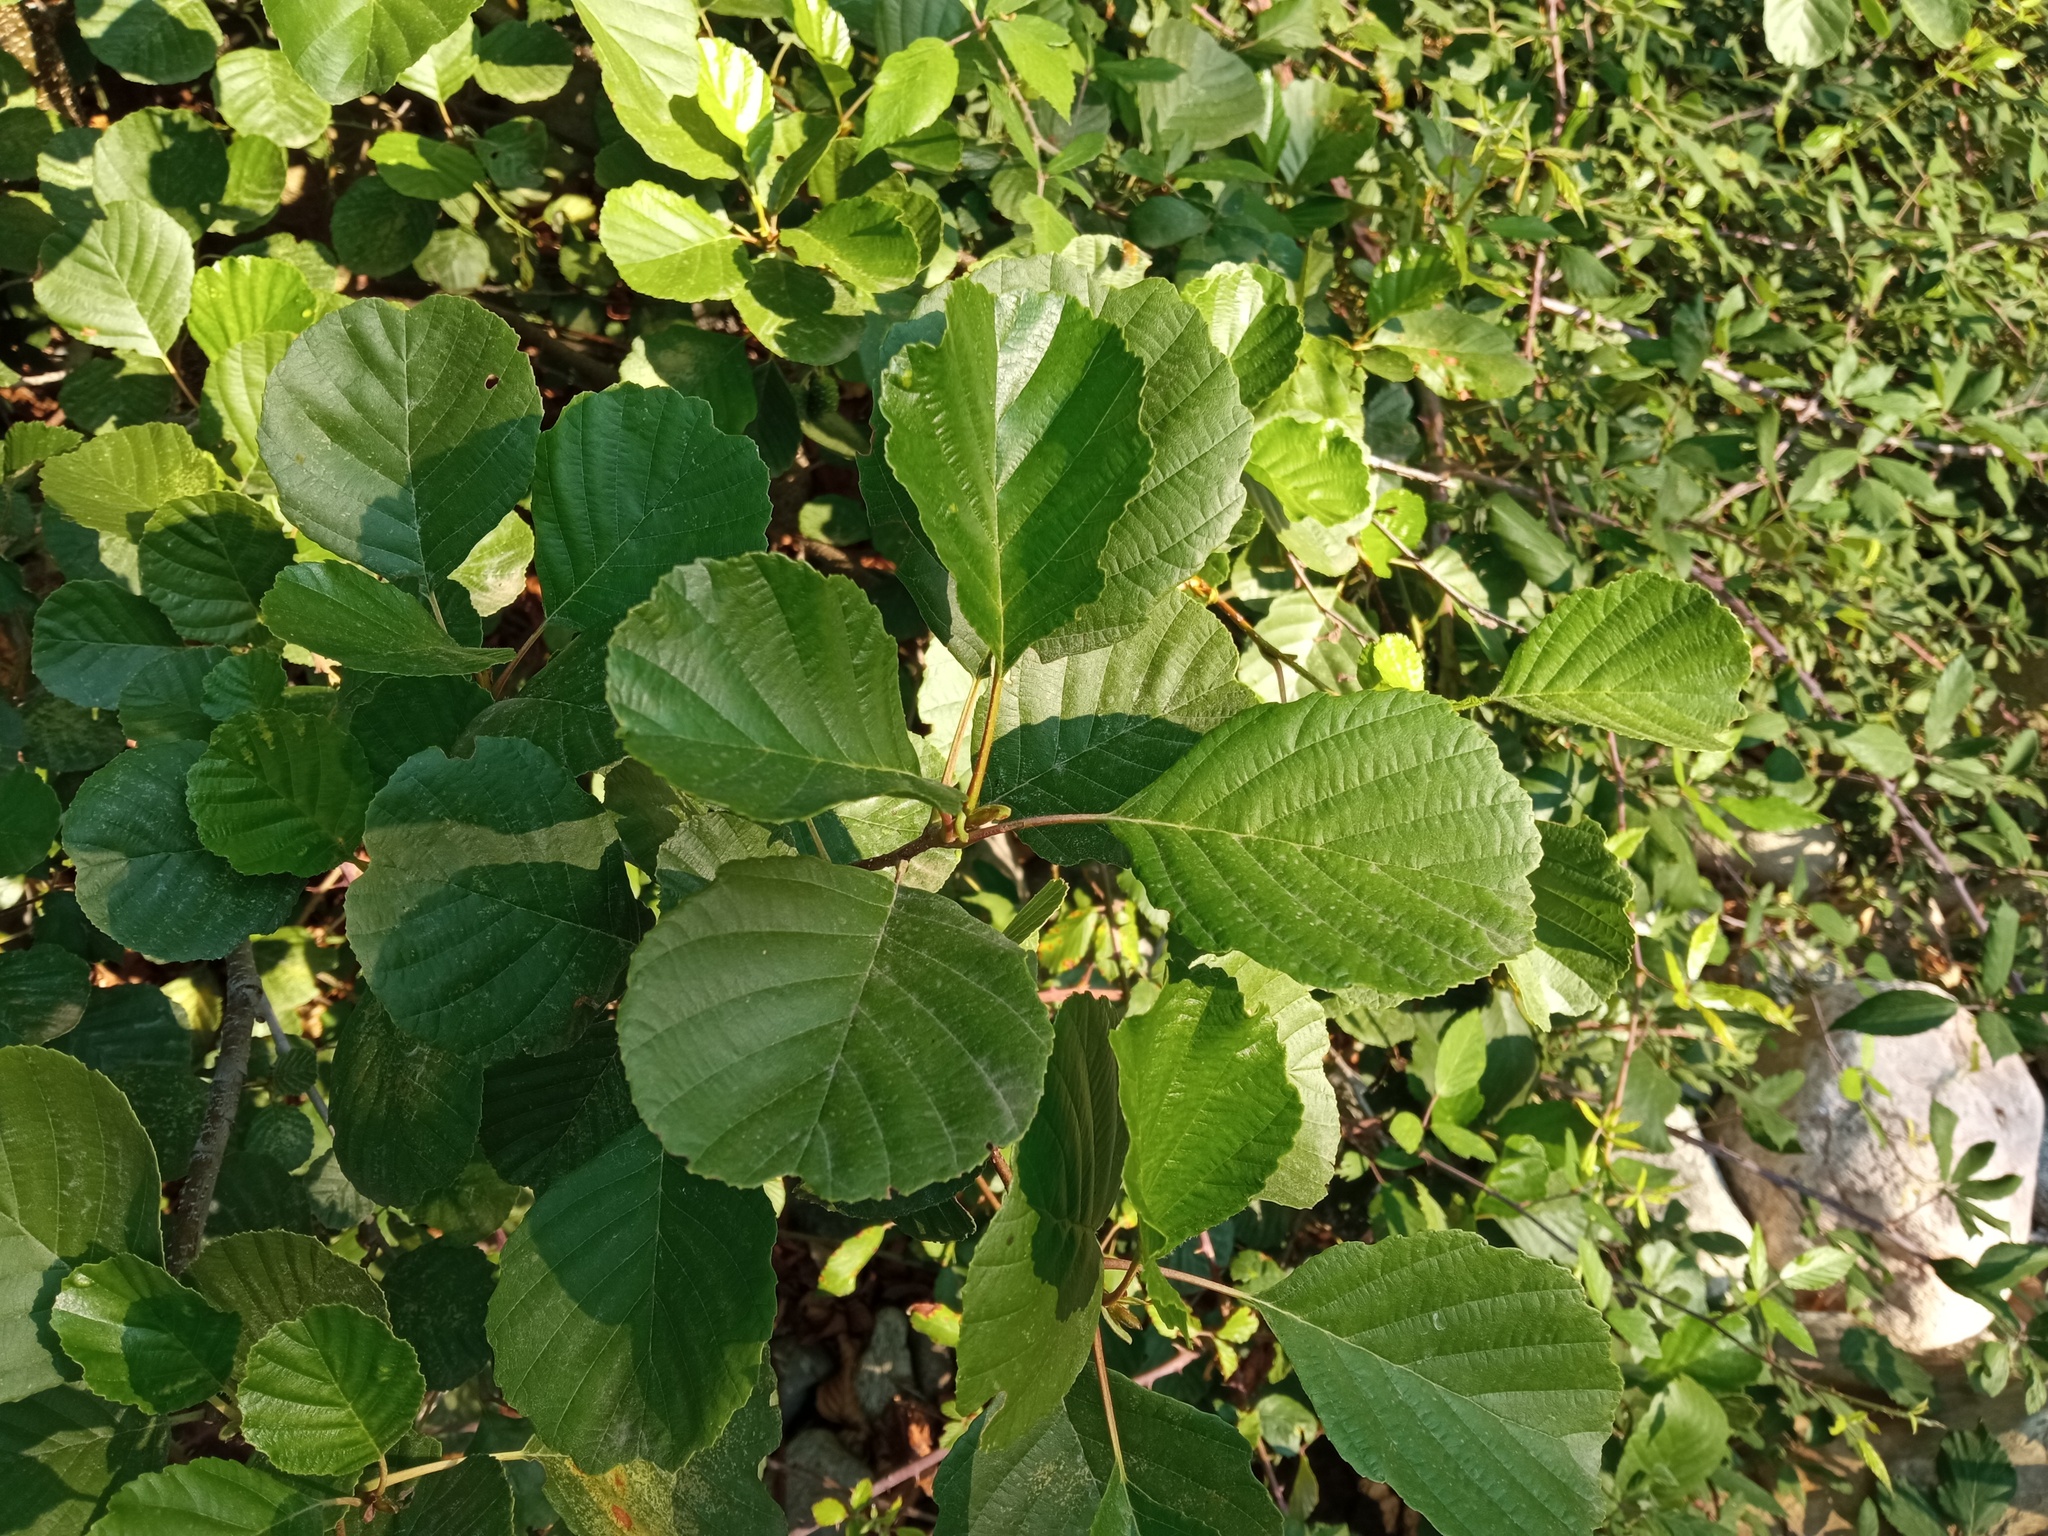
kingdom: Plantae
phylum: Tracheophyta
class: Magnoliopsida
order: Fagales
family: Betulaceae
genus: Alnus
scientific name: Alnus glutinosa
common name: Black alder
